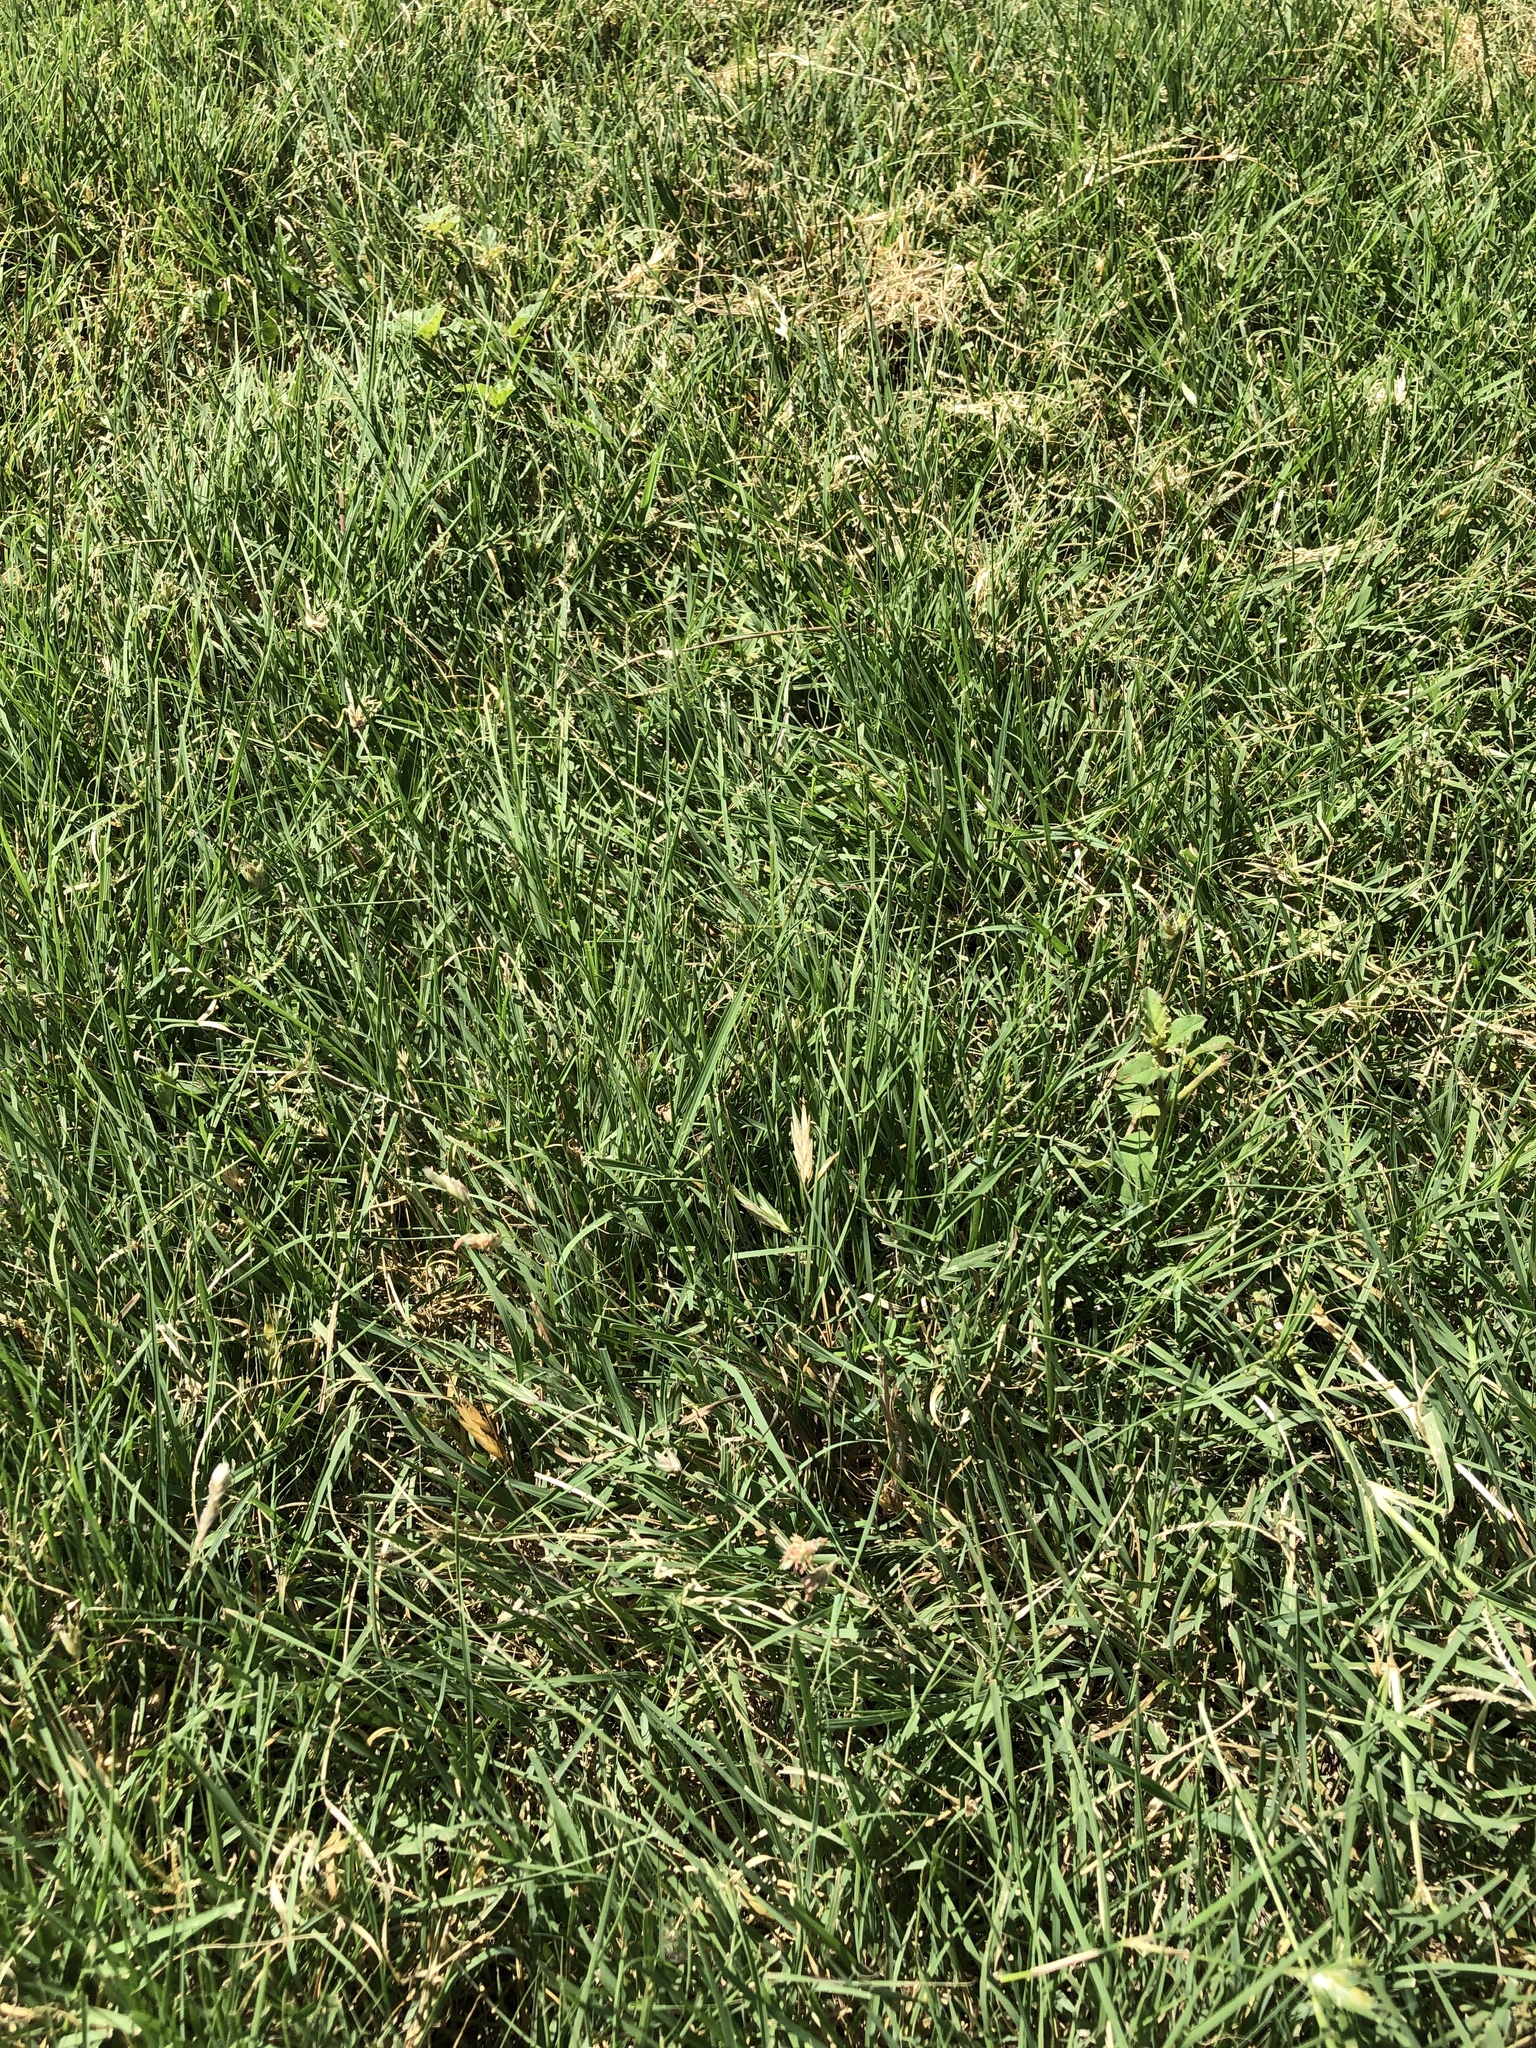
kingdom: Plantae
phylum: Tracheophyta
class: Liliopsida
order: Poales
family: Poaceae
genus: Bouteloua
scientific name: Bouteloua dactyloides
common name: Buffalo grass
